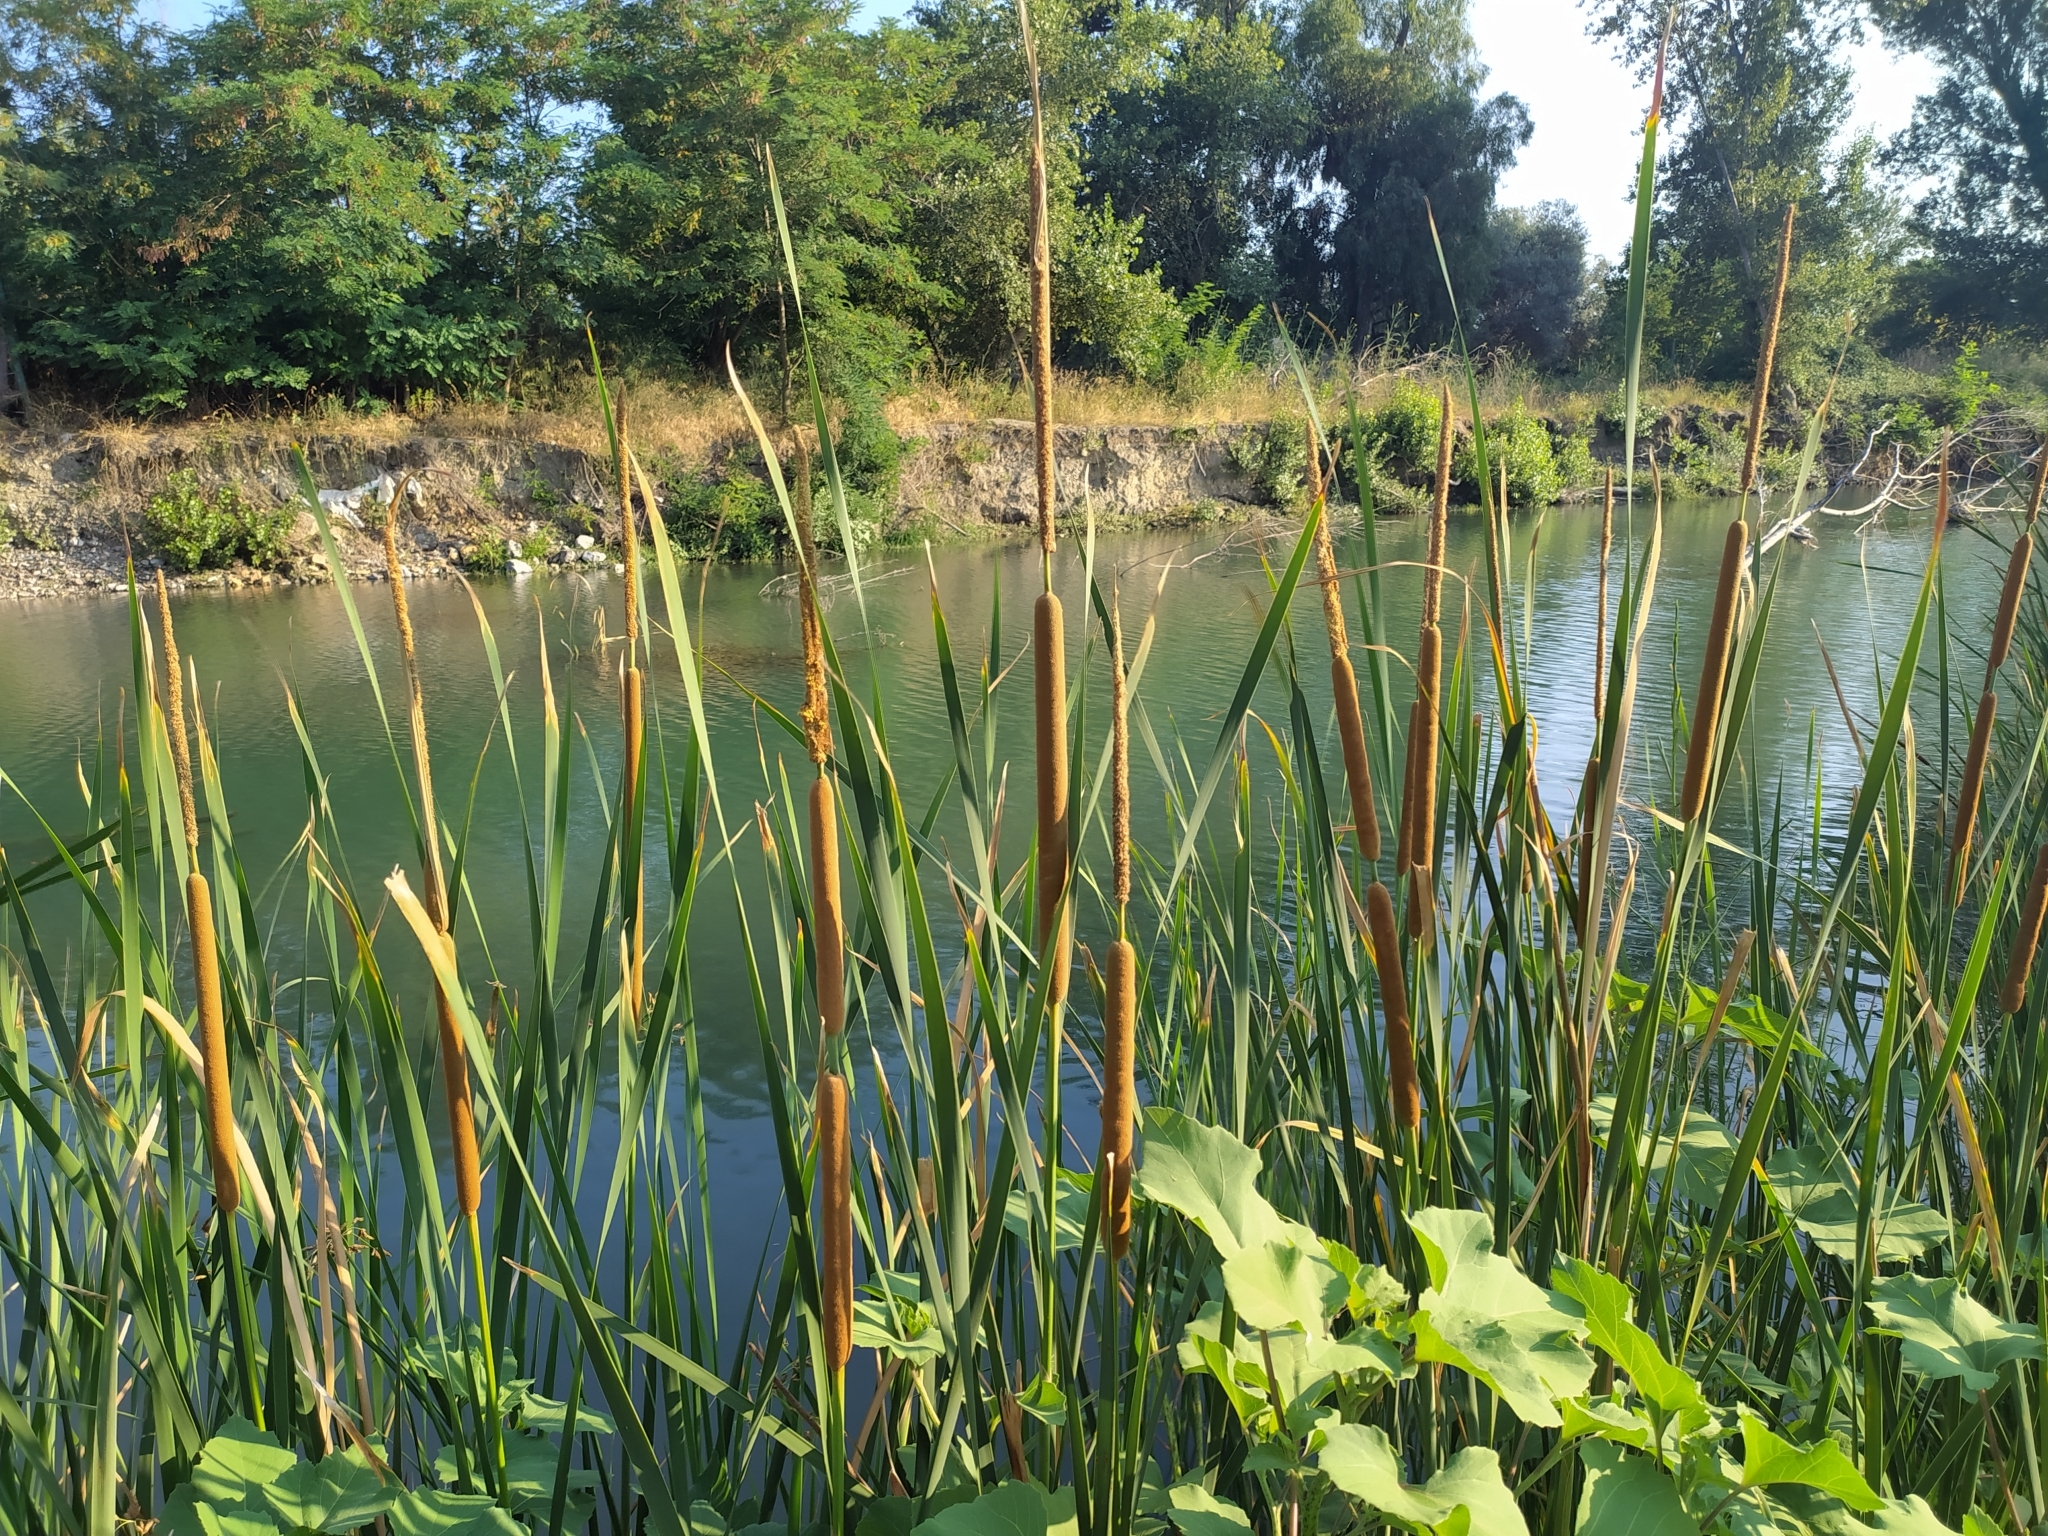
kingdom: Plantae
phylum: Tracheophyta
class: Liliopsida
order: Poales
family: Typhaceae
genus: Typha
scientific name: Typha domingensis
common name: Southern cattail
